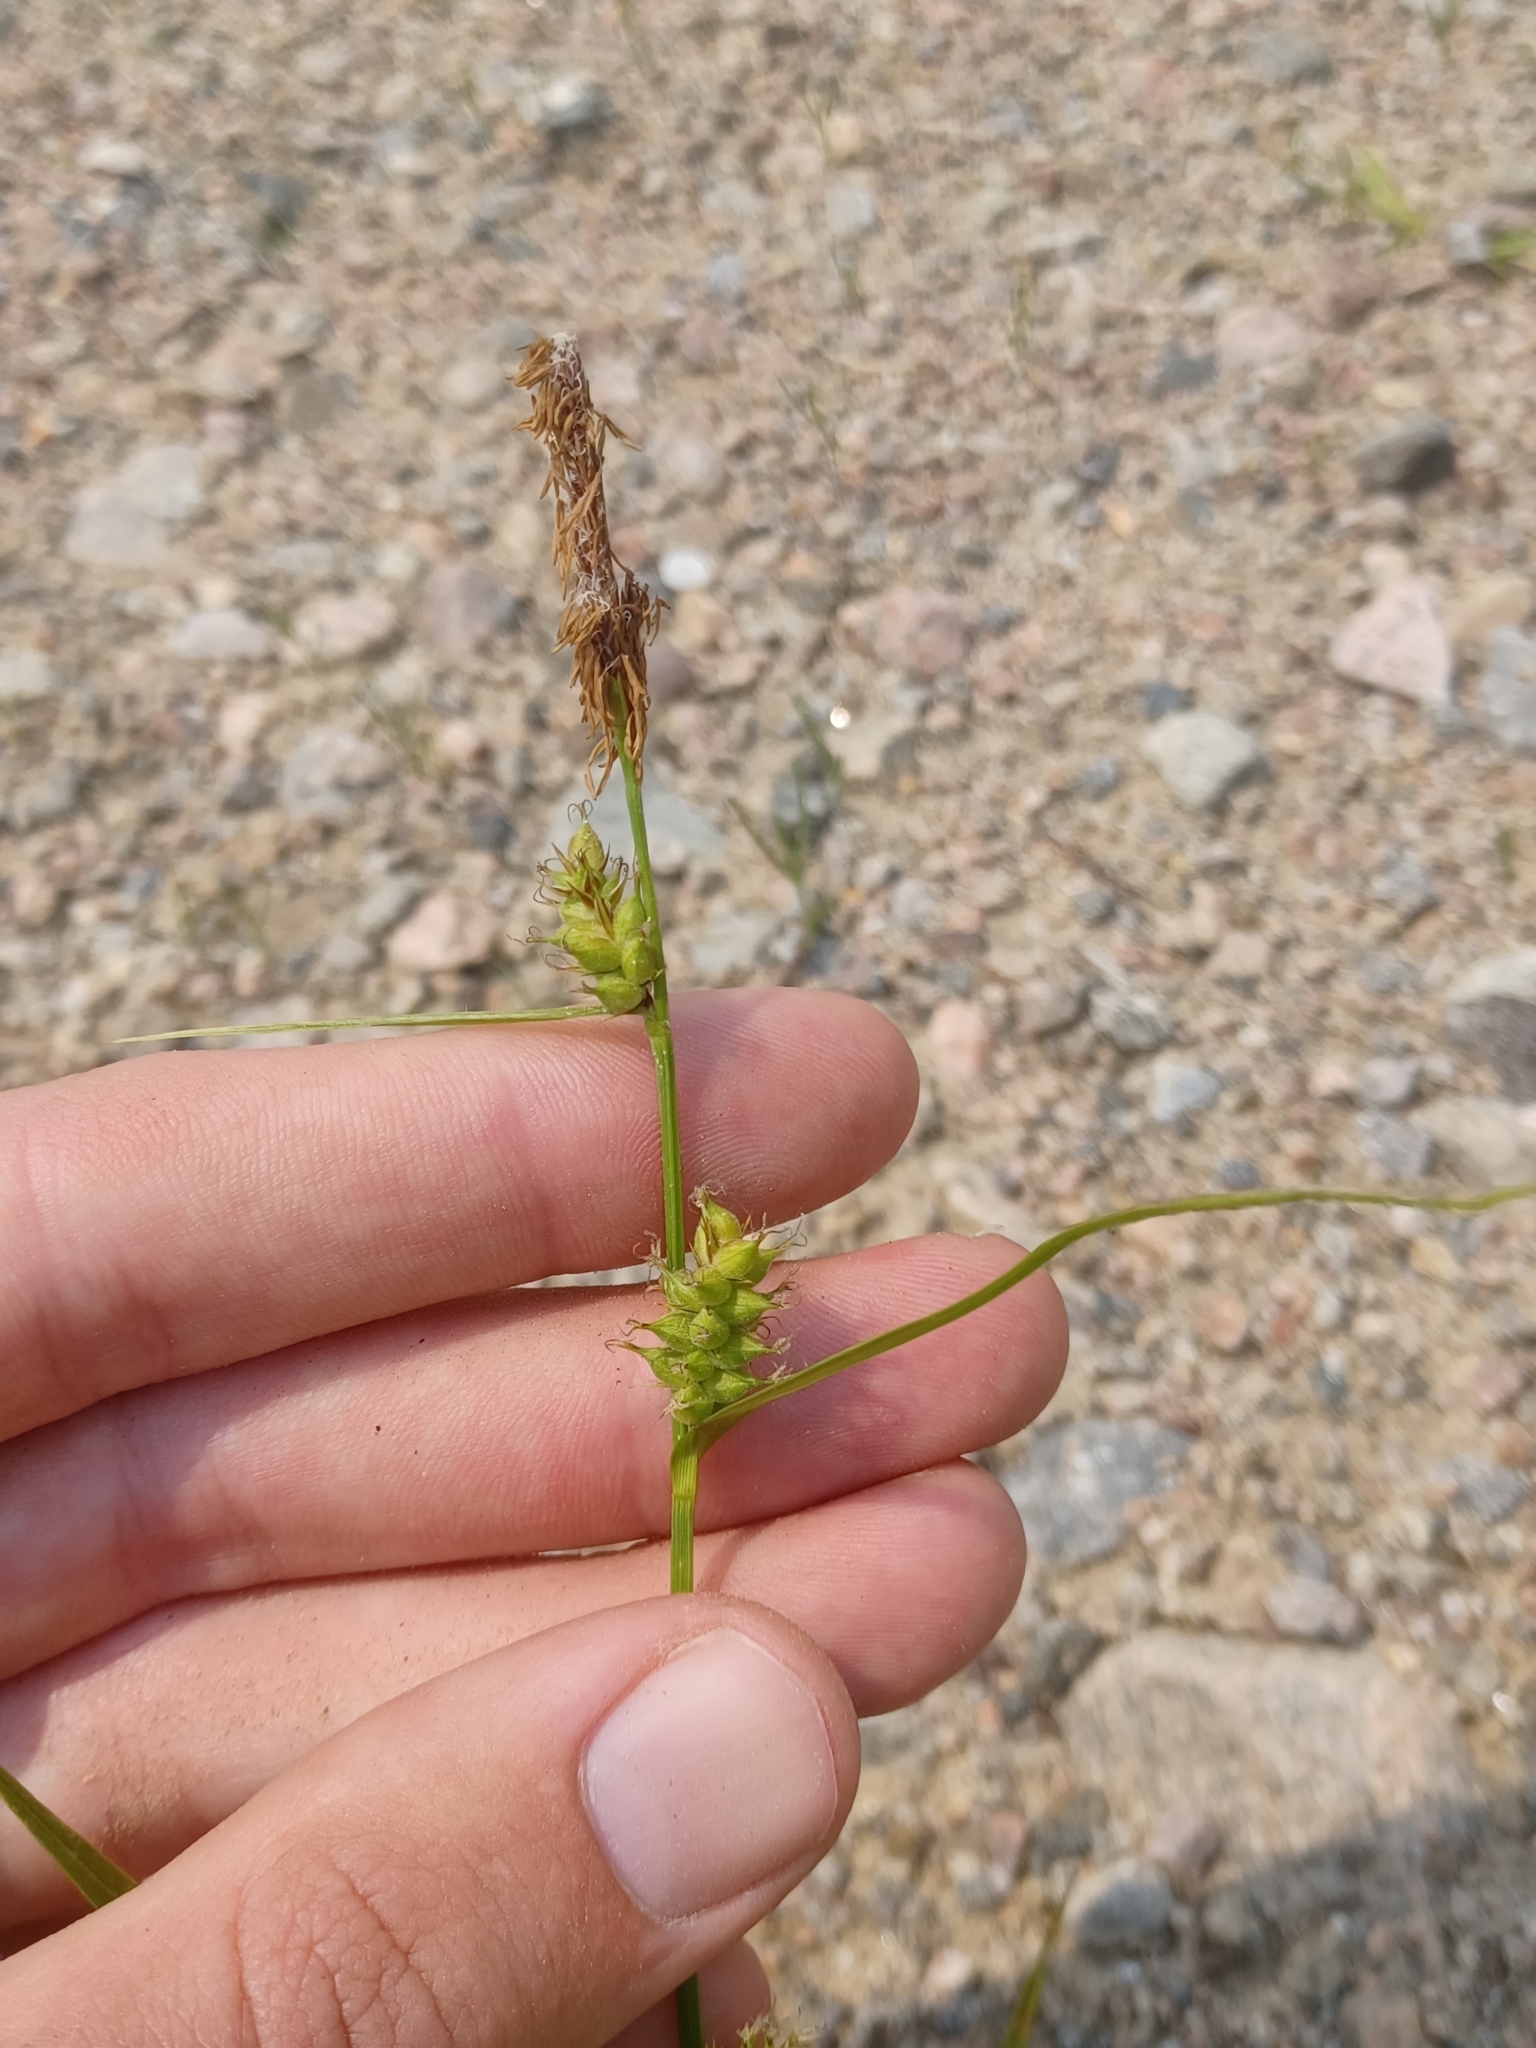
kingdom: Plantae
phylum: Tracheophyta
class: Liliopsida
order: Poales
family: Cyperaceae
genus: Carex
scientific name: Carex houghtoniana
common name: Houghton's sedge
